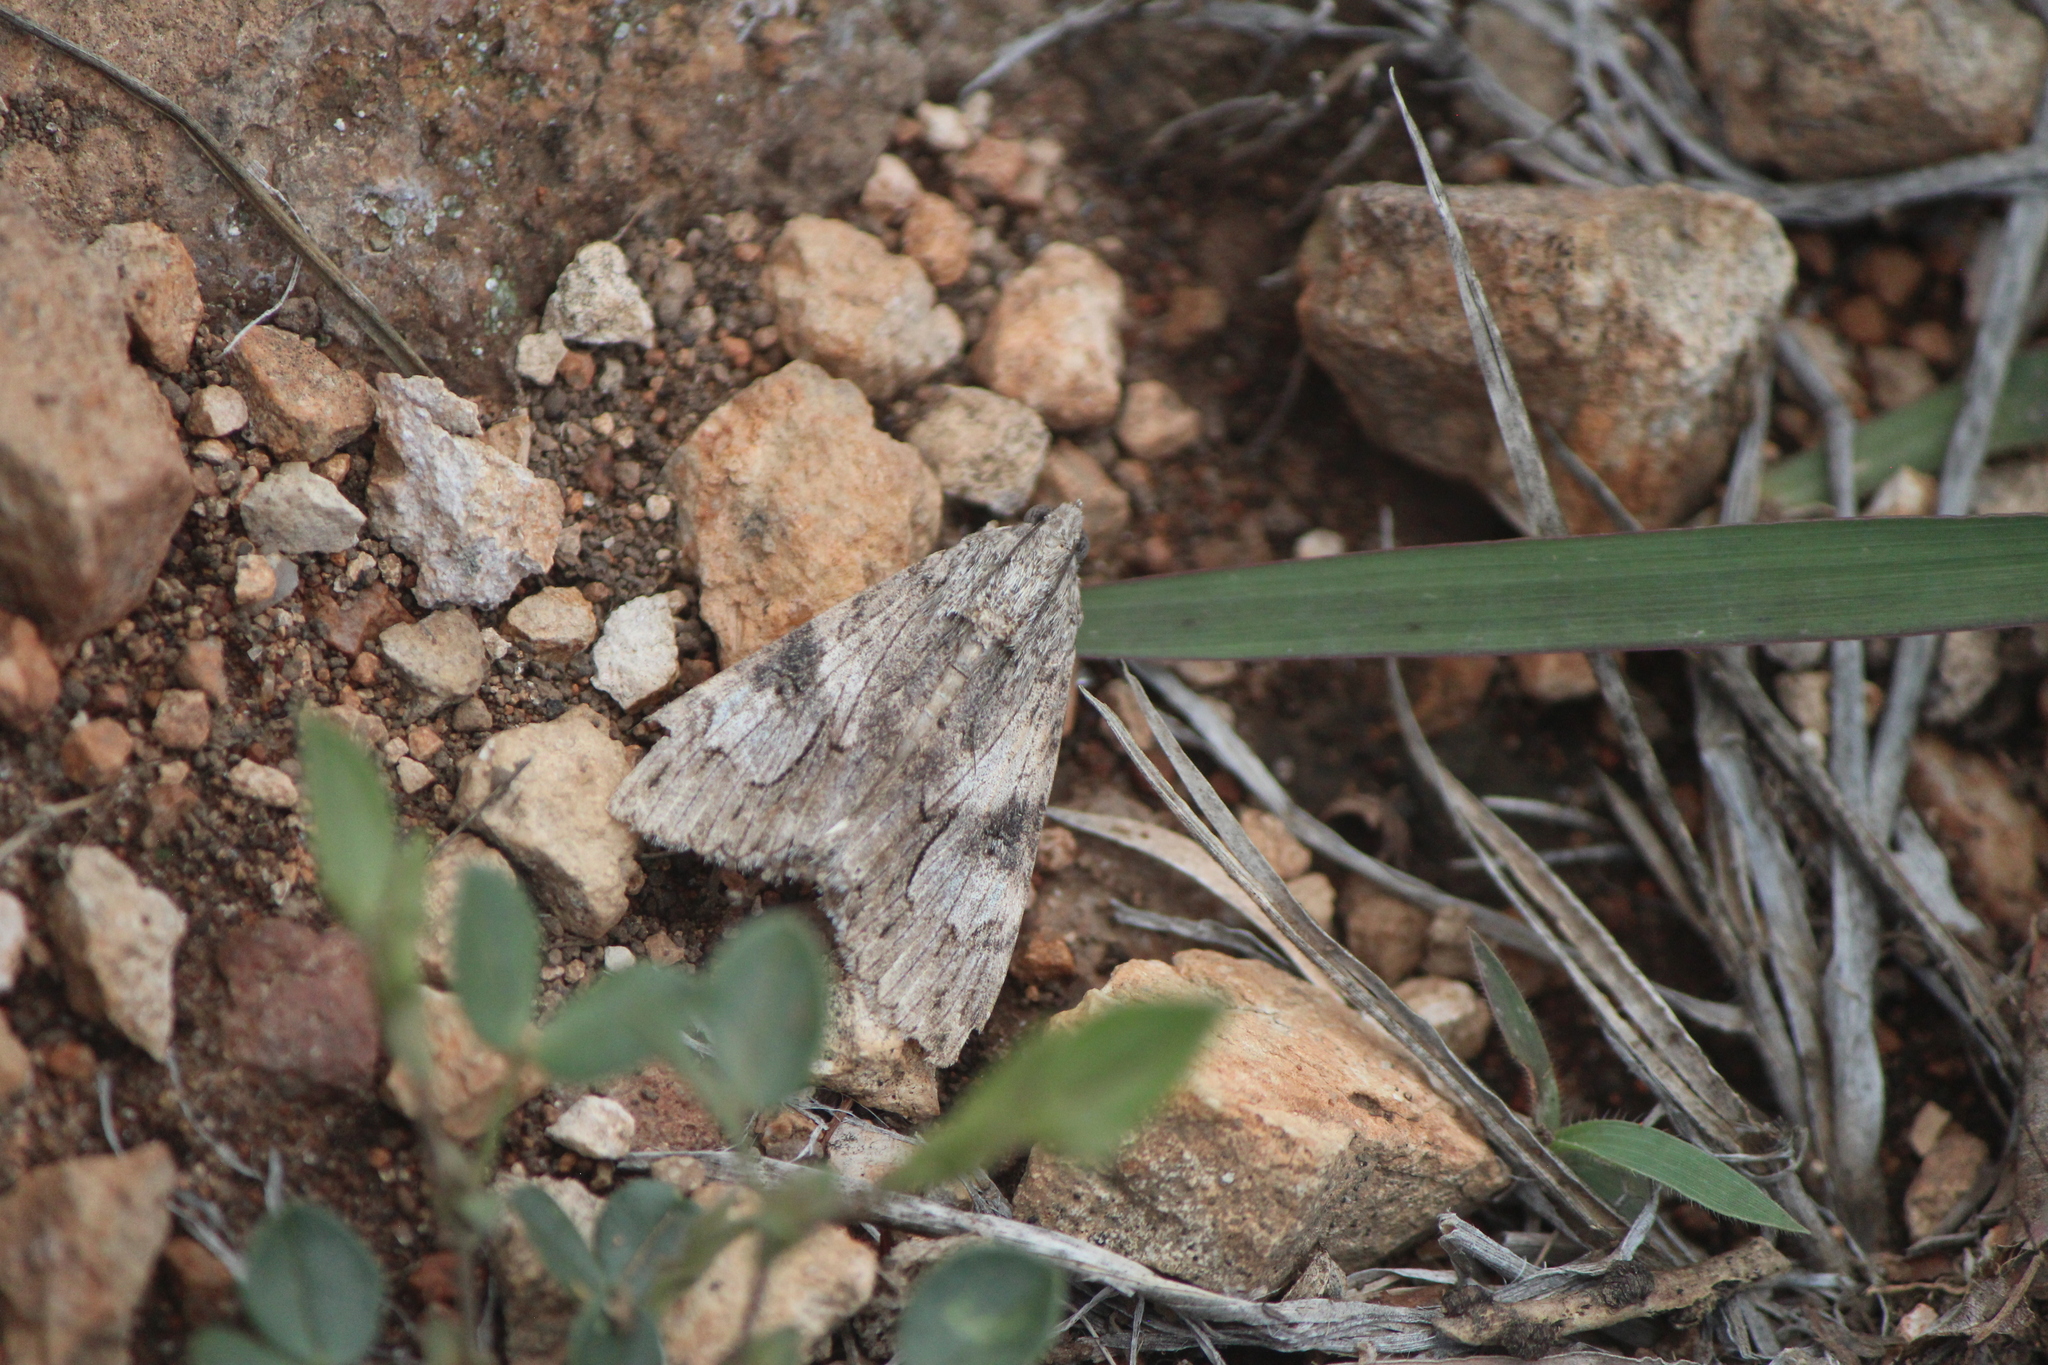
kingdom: Animalia
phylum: Arthropoda
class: Insecta
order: Lepidoptera
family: Erebidae
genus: Melipotis
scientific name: Melipotis jucunda
